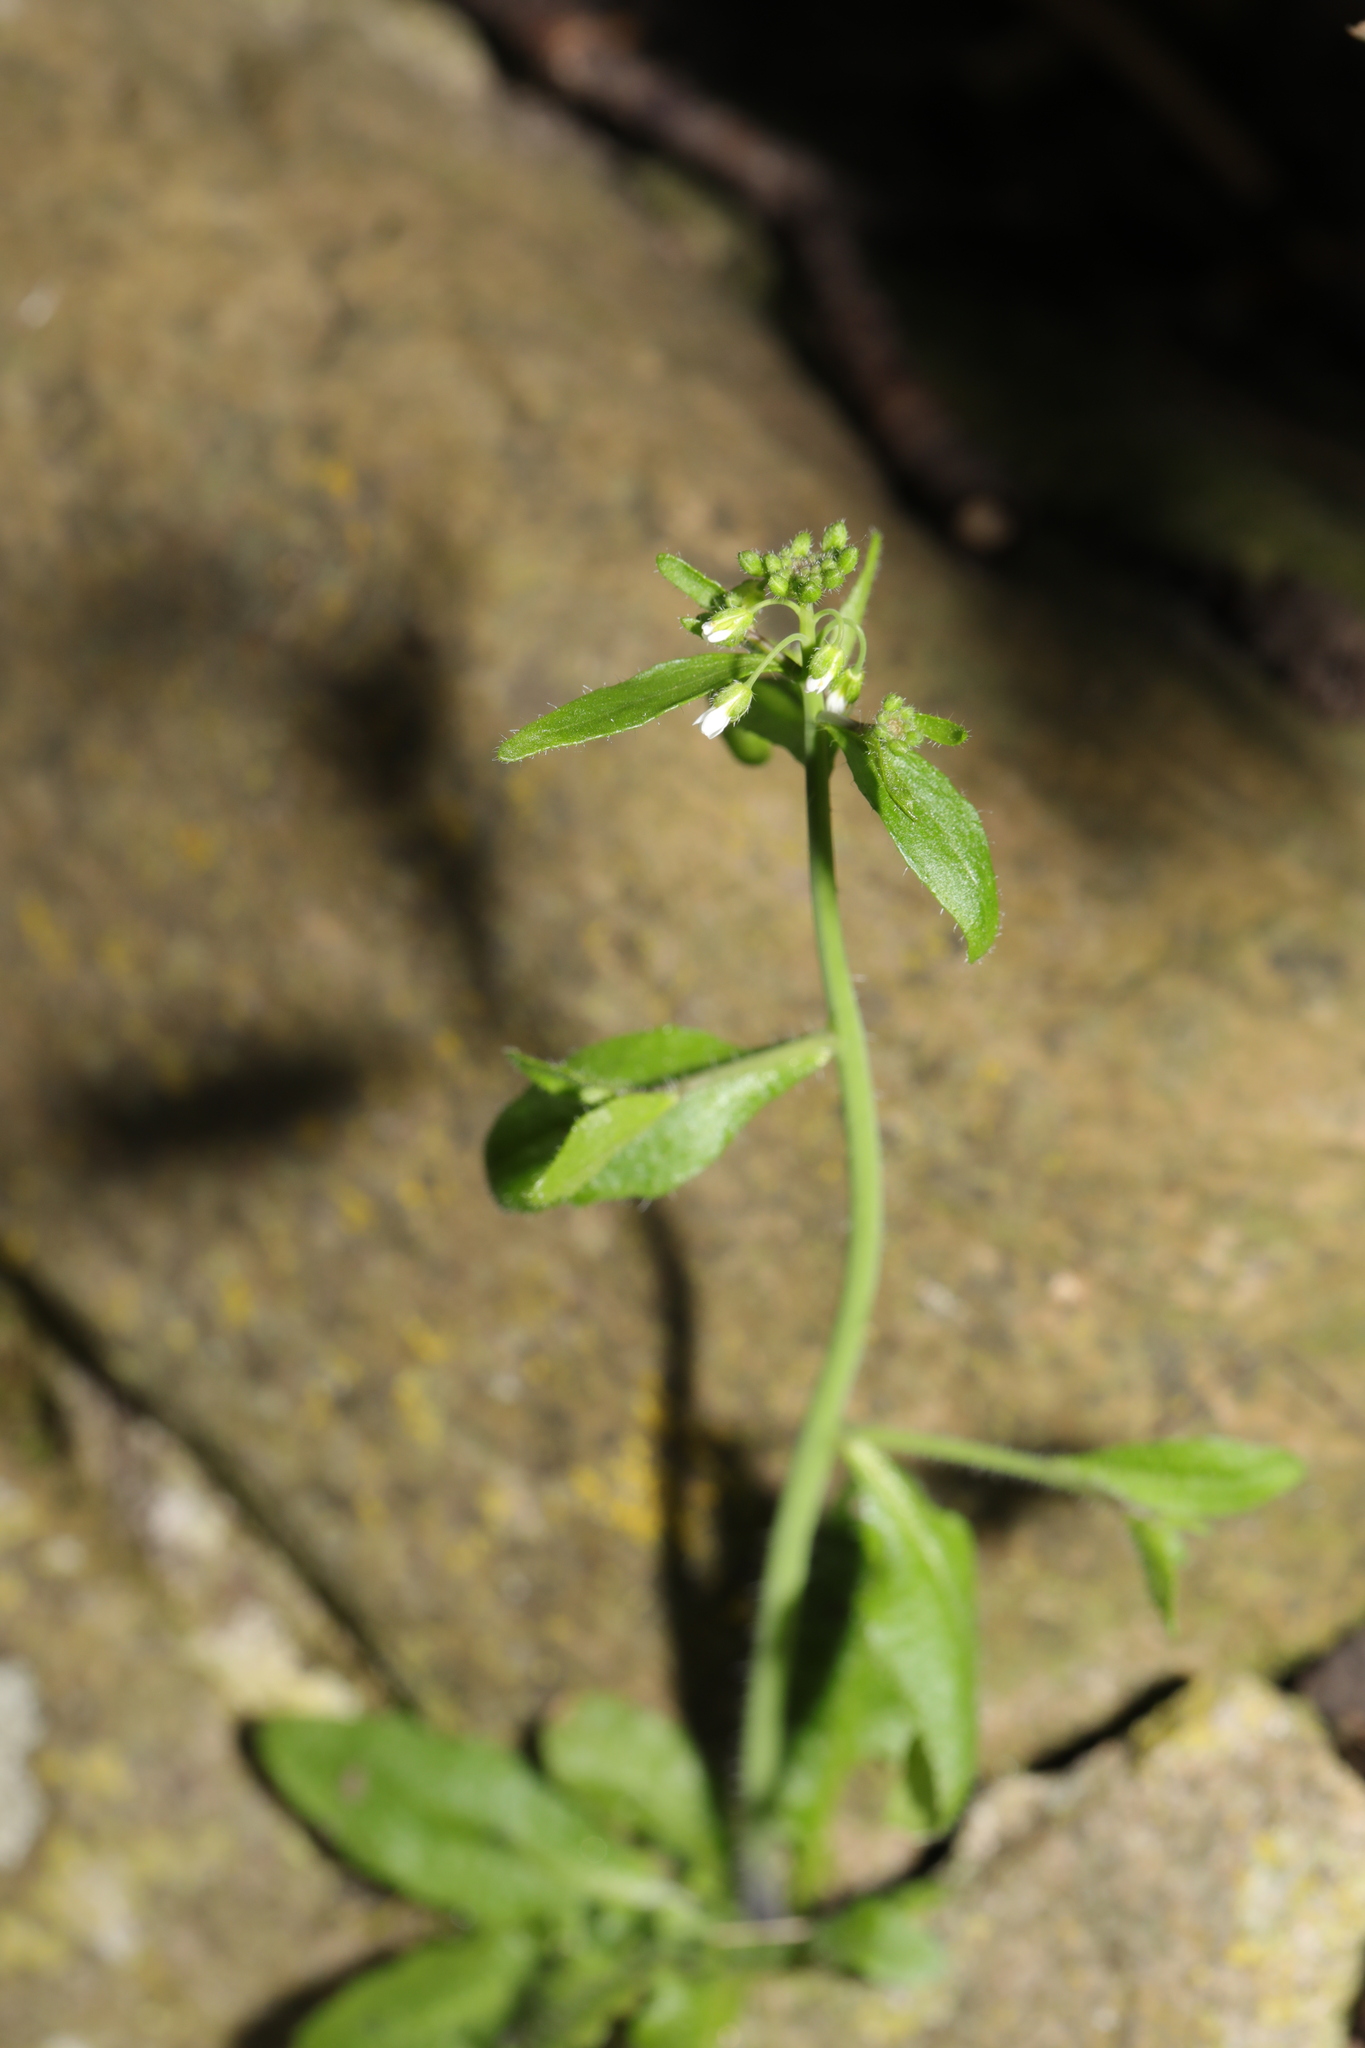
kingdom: Plantae
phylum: Tracheophyta
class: Magnoliopsida
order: Brassicales
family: Brassicaceae
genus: Arabidopsis
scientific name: Arabidopsis thaliana
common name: Thale cress
